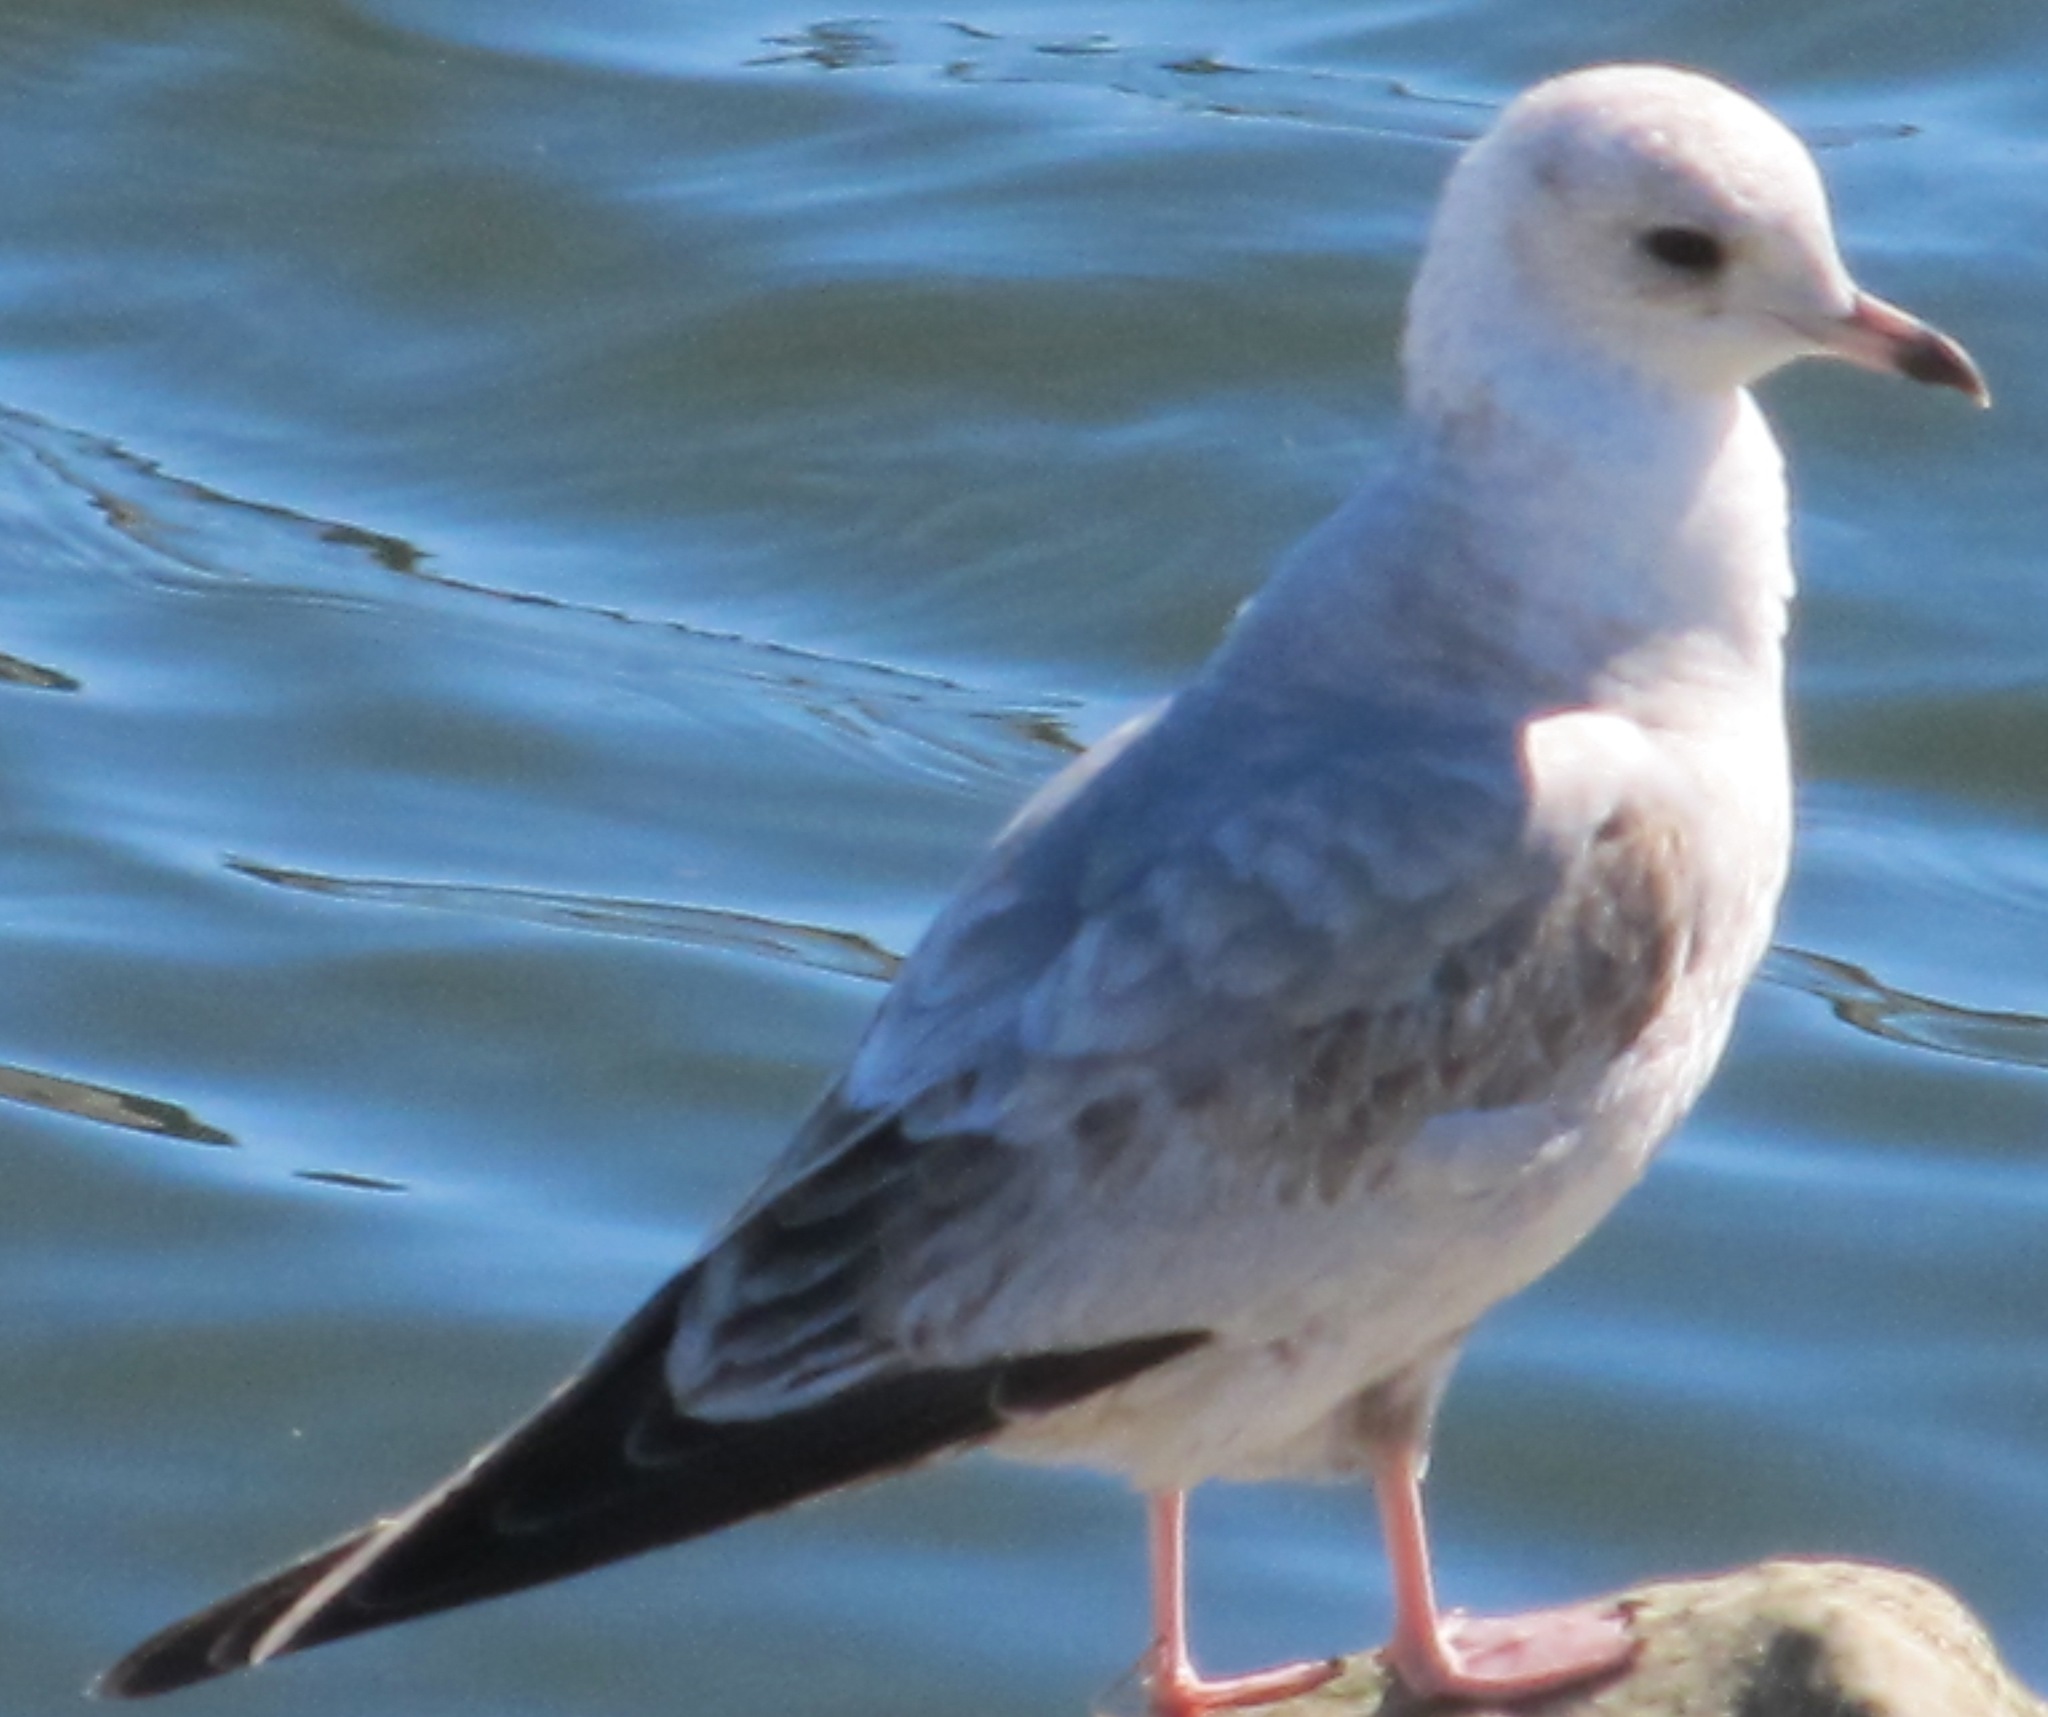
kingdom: Animalia
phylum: Chordata
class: Aves
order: Charadriiformes
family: Laridae
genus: Larus
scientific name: Larus brachyrhynchus
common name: Short-billed gull
